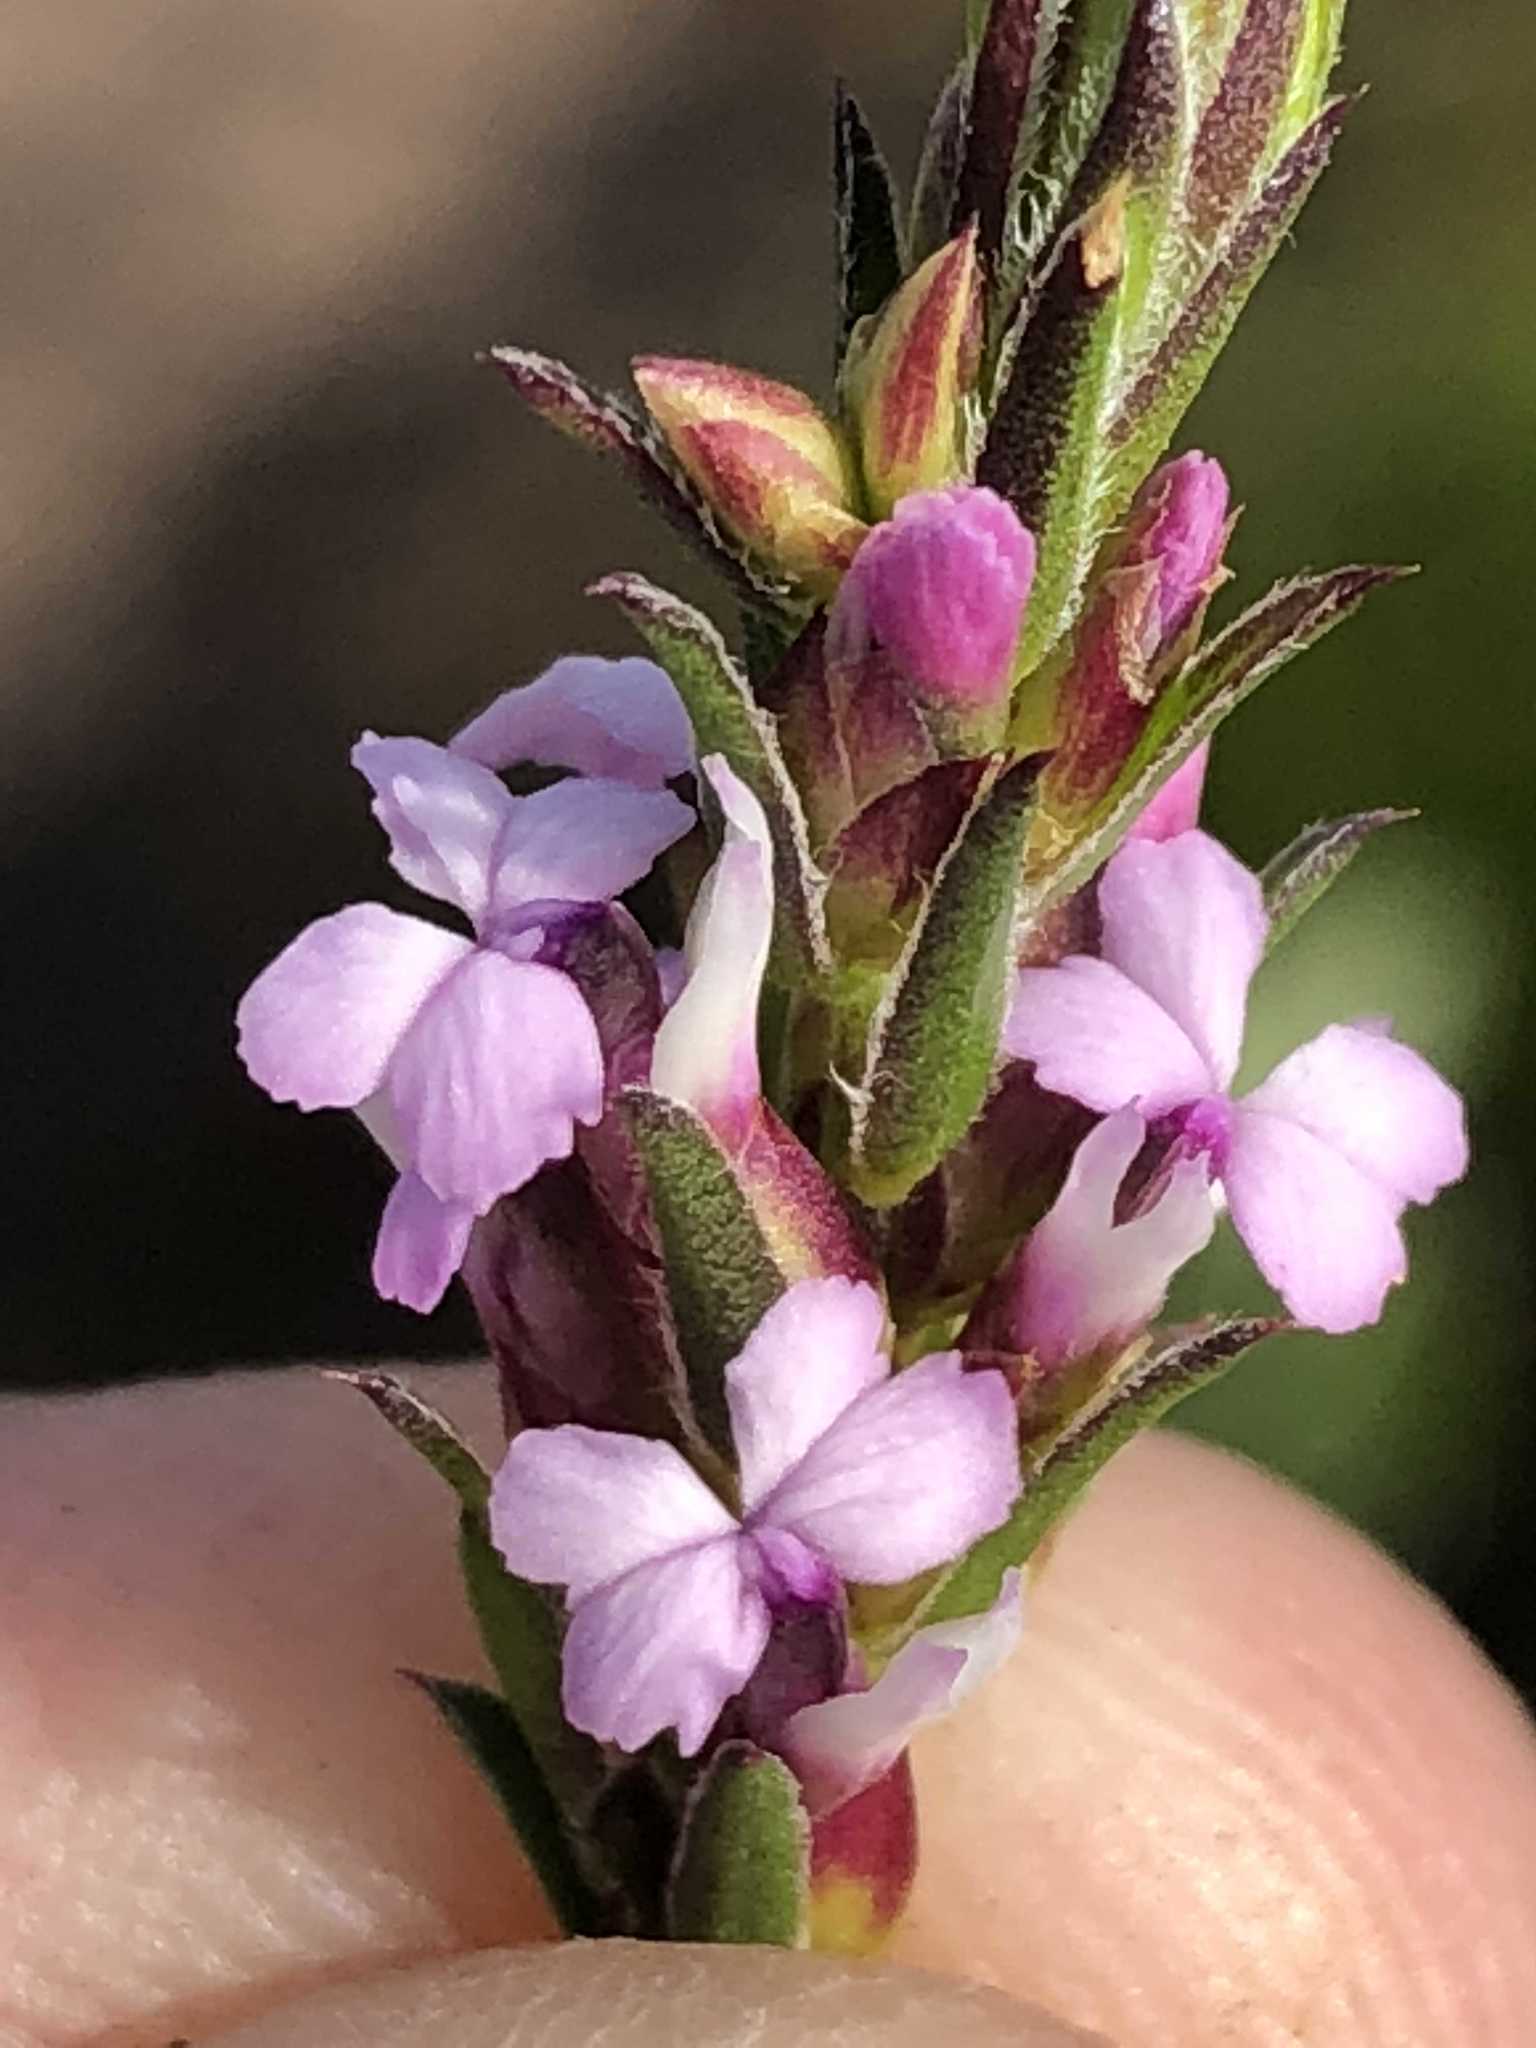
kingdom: Plantae
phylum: Tracheophyta
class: Magnoliopsida
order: Fabales
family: Polygalaceae
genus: Muraltia
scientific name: Muraltia knysnaensis
